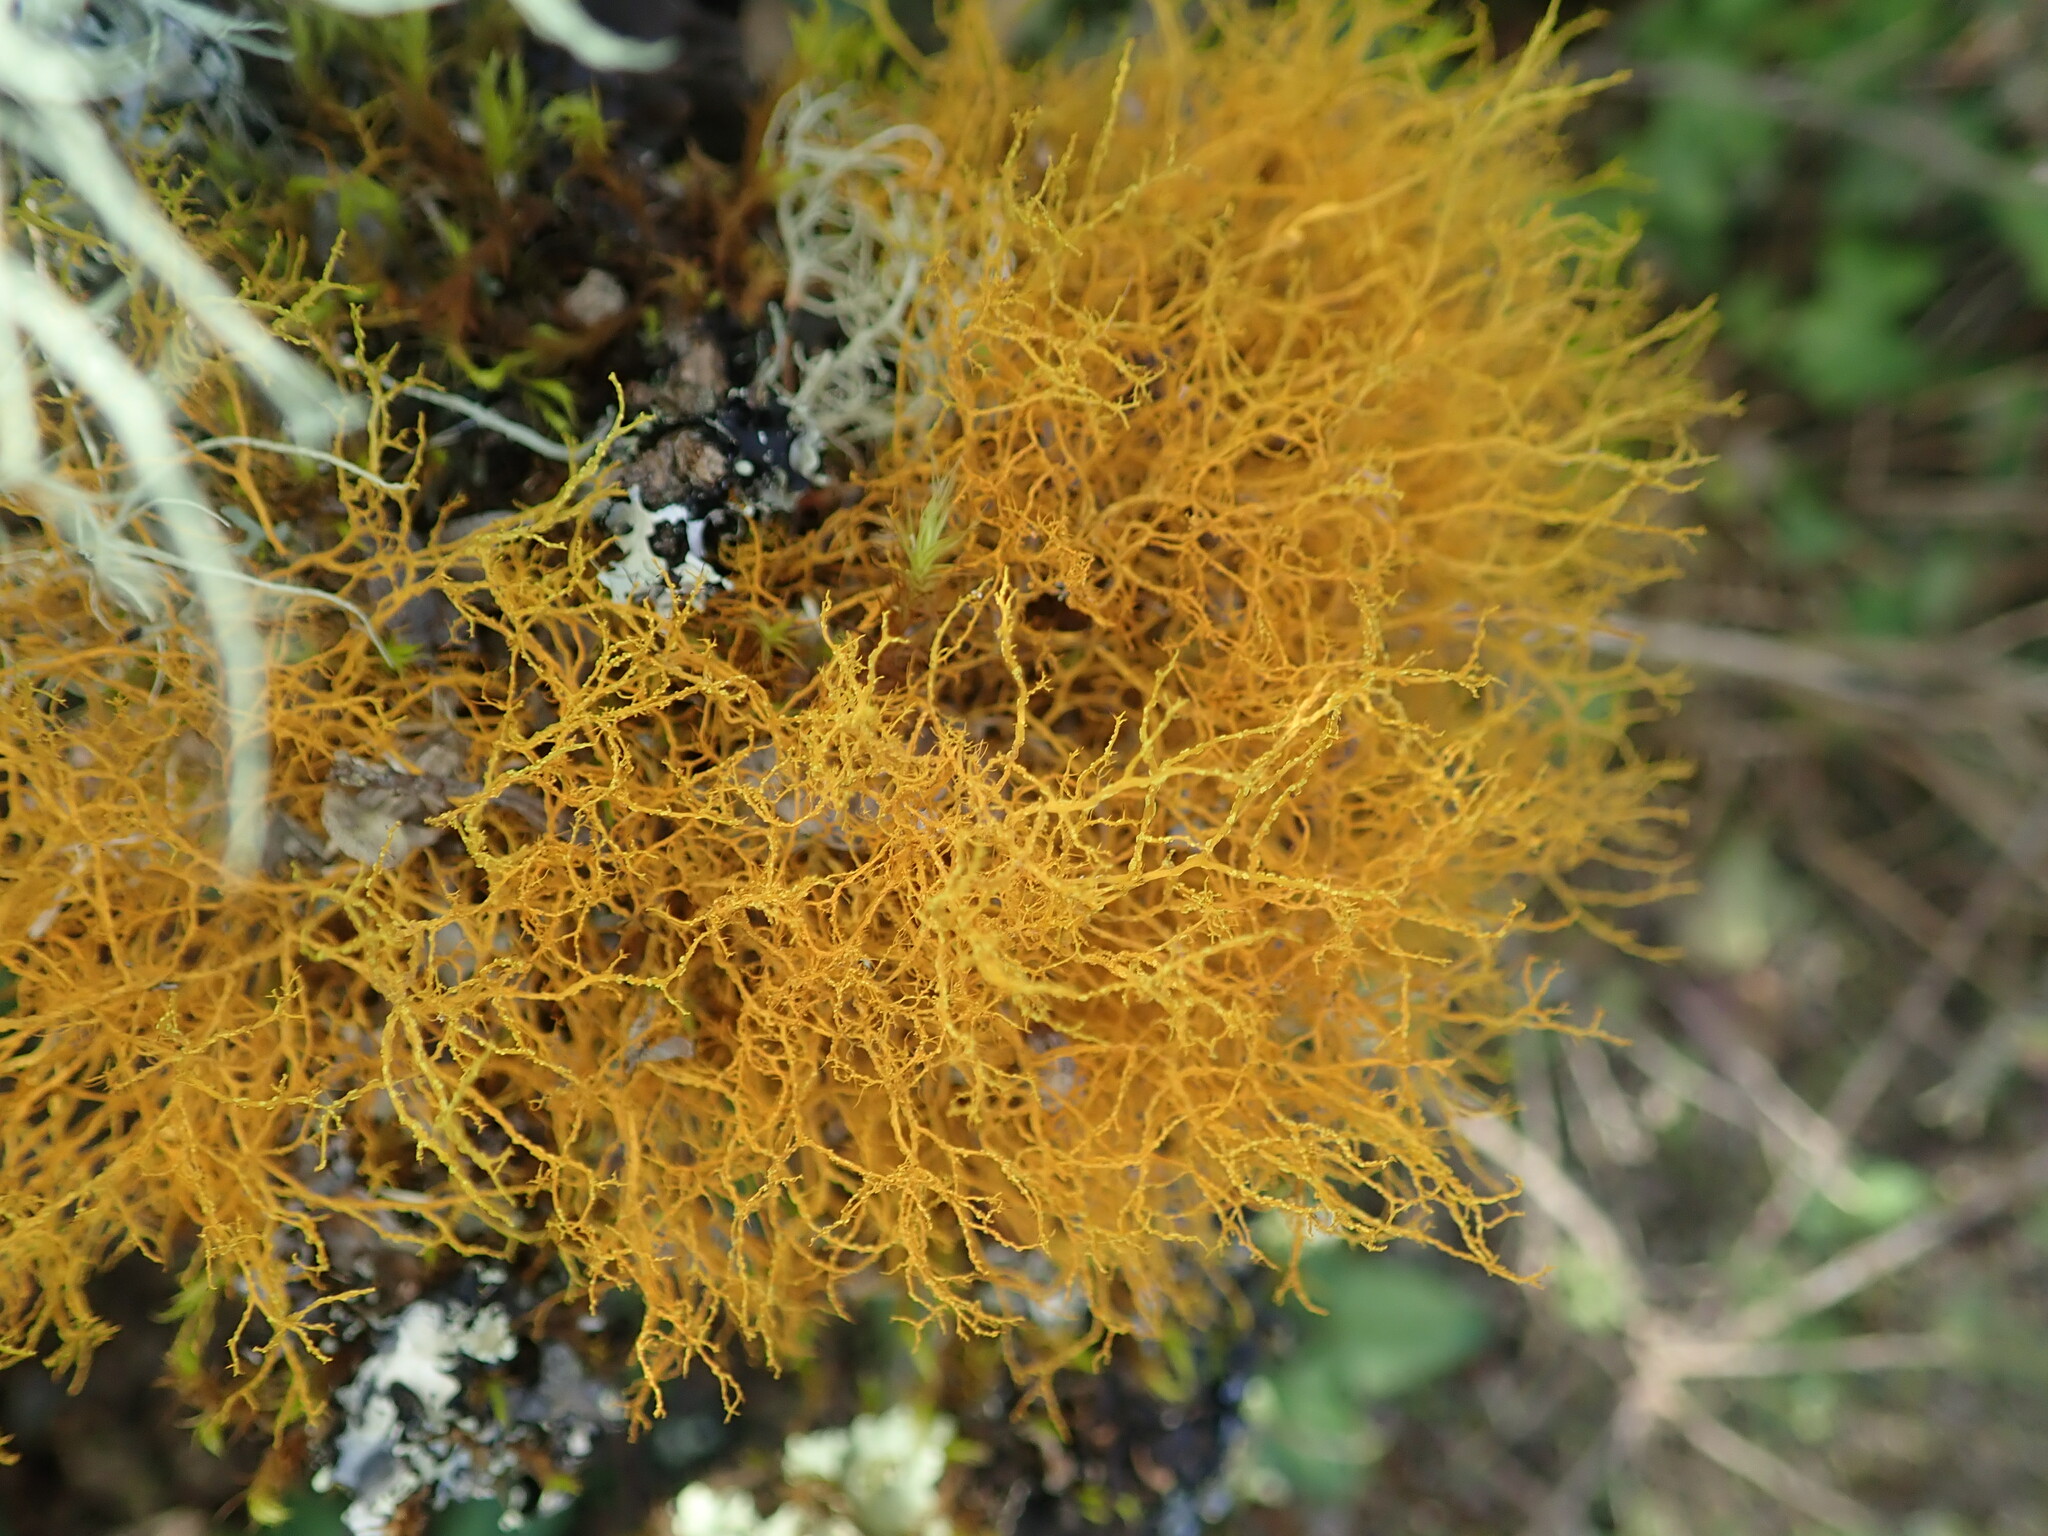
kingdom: Fungi
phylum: Ascomycota
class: Lecanoromycetes
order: Teloschistales
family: Teloschistaceae
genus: Teloschistes
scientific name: Teloschistes flavicans
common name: Golden hair-lichen
